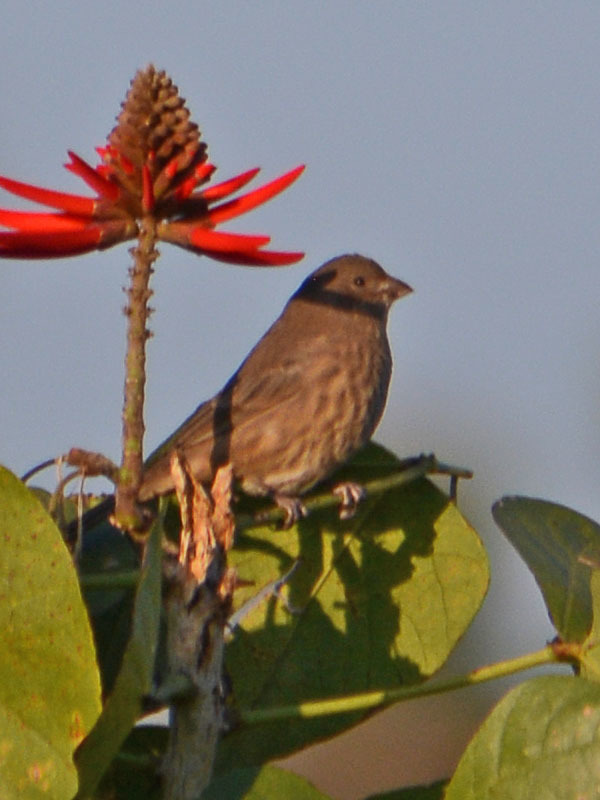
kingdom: Animalia
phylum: Chordata
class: Aves
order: Passeriformes
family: Fringillidae
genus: Haemorhous
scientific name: Haemorhous mexicanus
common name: House finch
